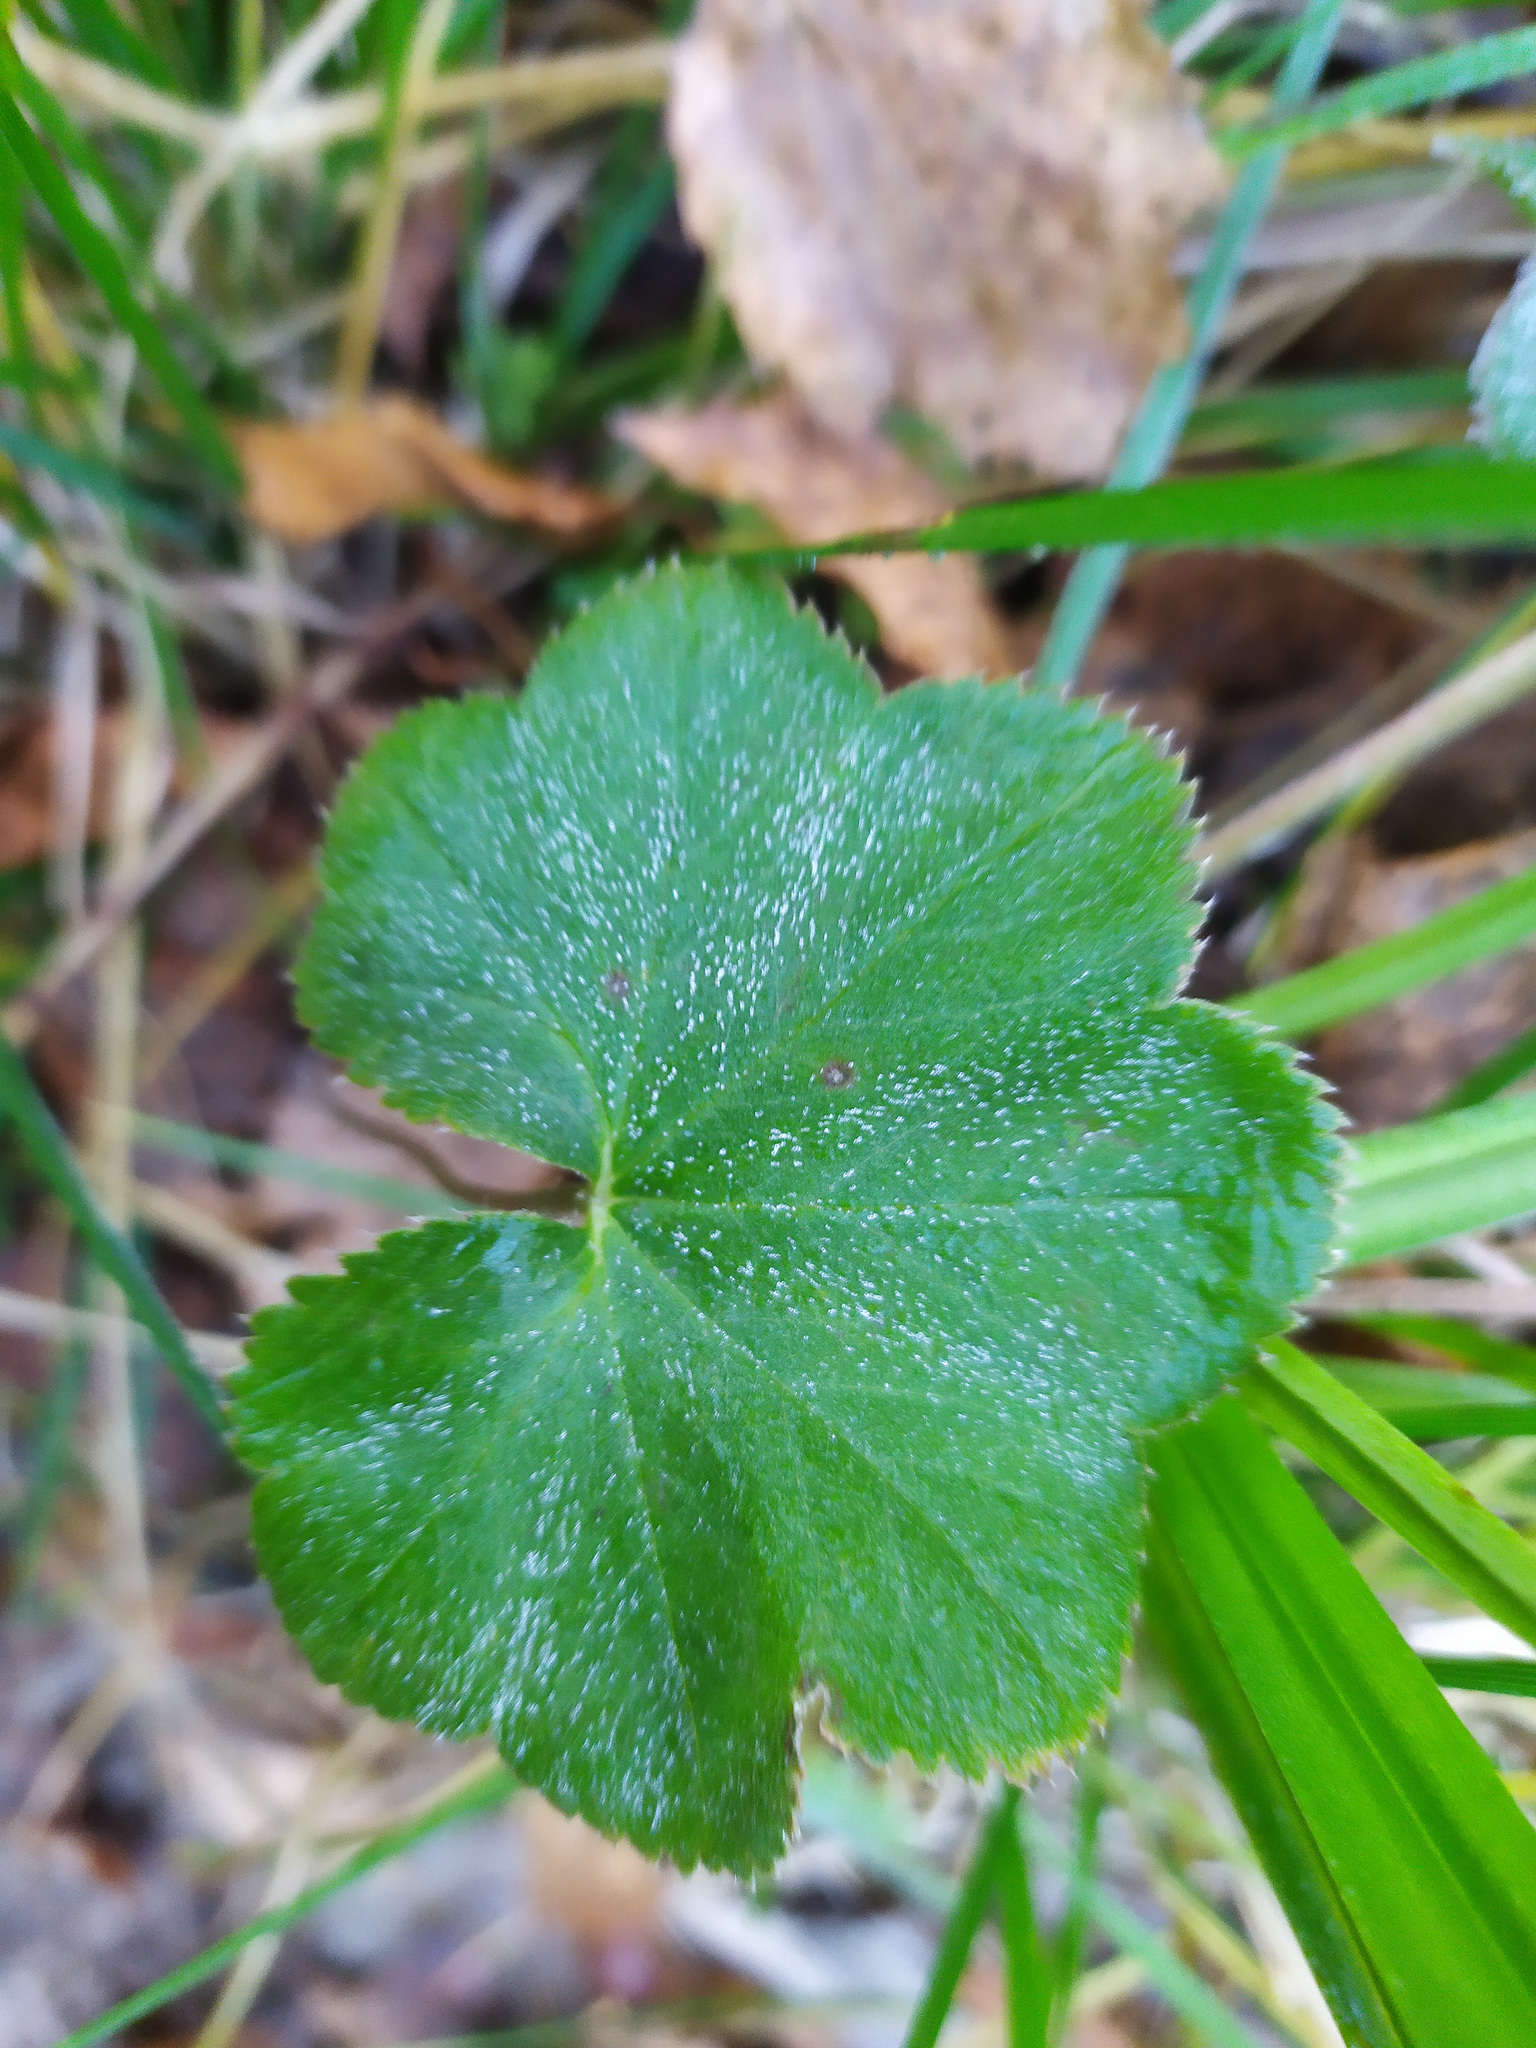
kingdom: Plantae
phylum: Tracheophyta
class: Magnoliopsida
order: Rosales
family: Rosaceae
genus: Alchemilla
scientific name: Alchemilla
